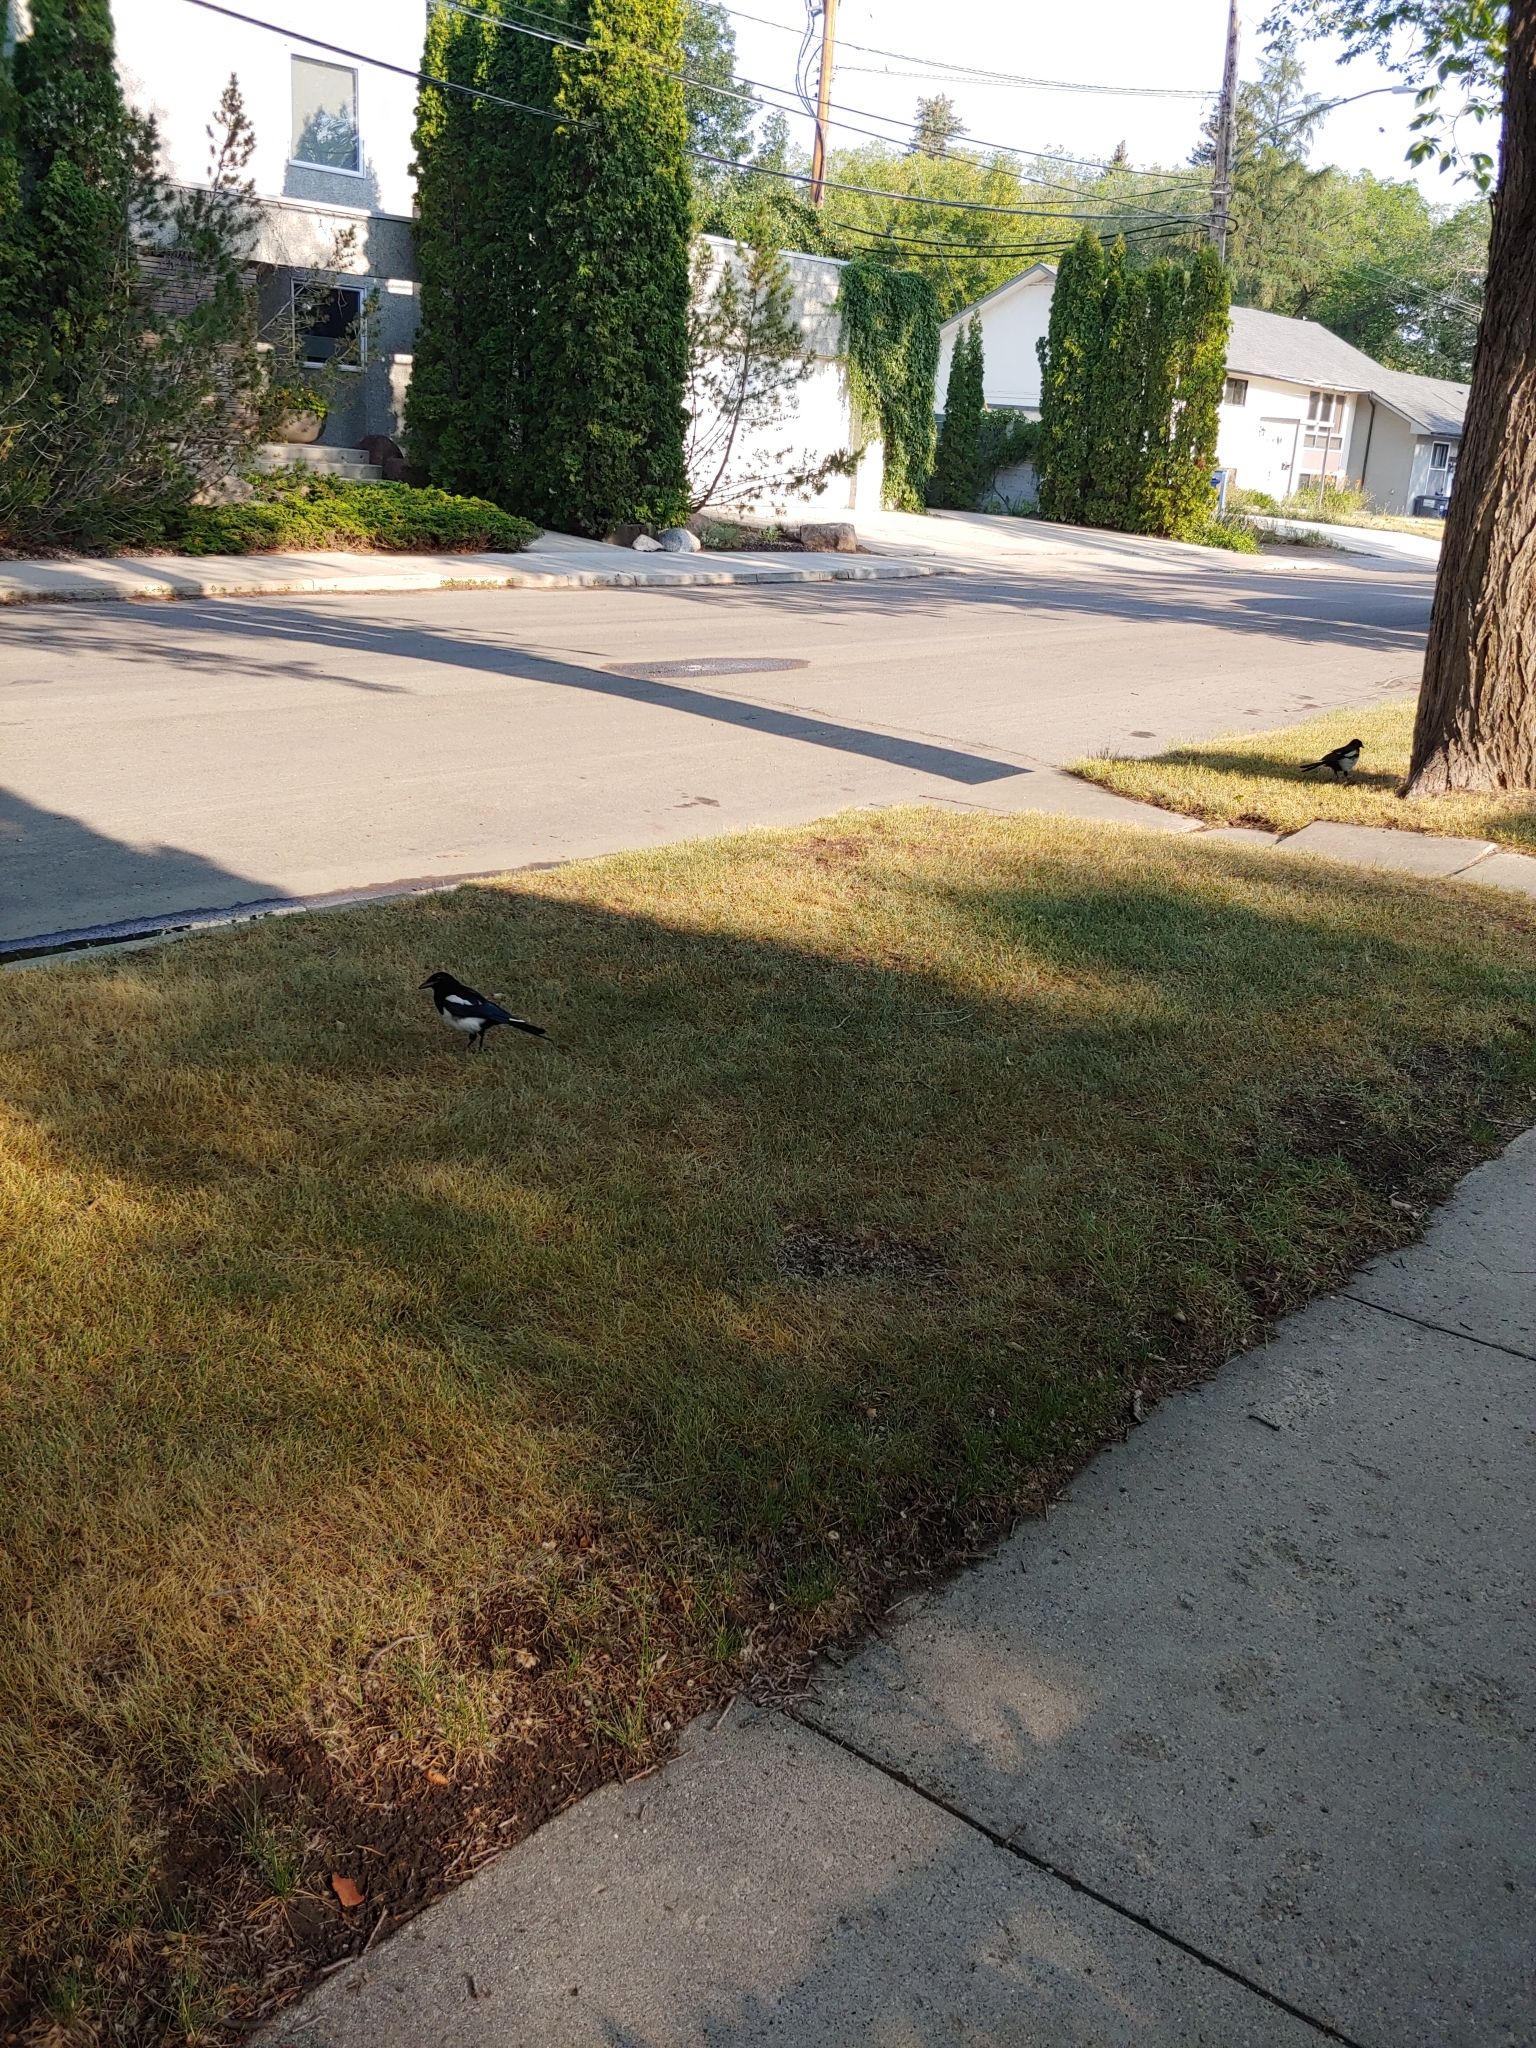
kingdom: Animalia
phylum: Chordata
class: Aves
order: Passeriformes
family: Corvidae
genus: Pica
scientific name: Pica hudsonia
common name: Black-billed magpie
